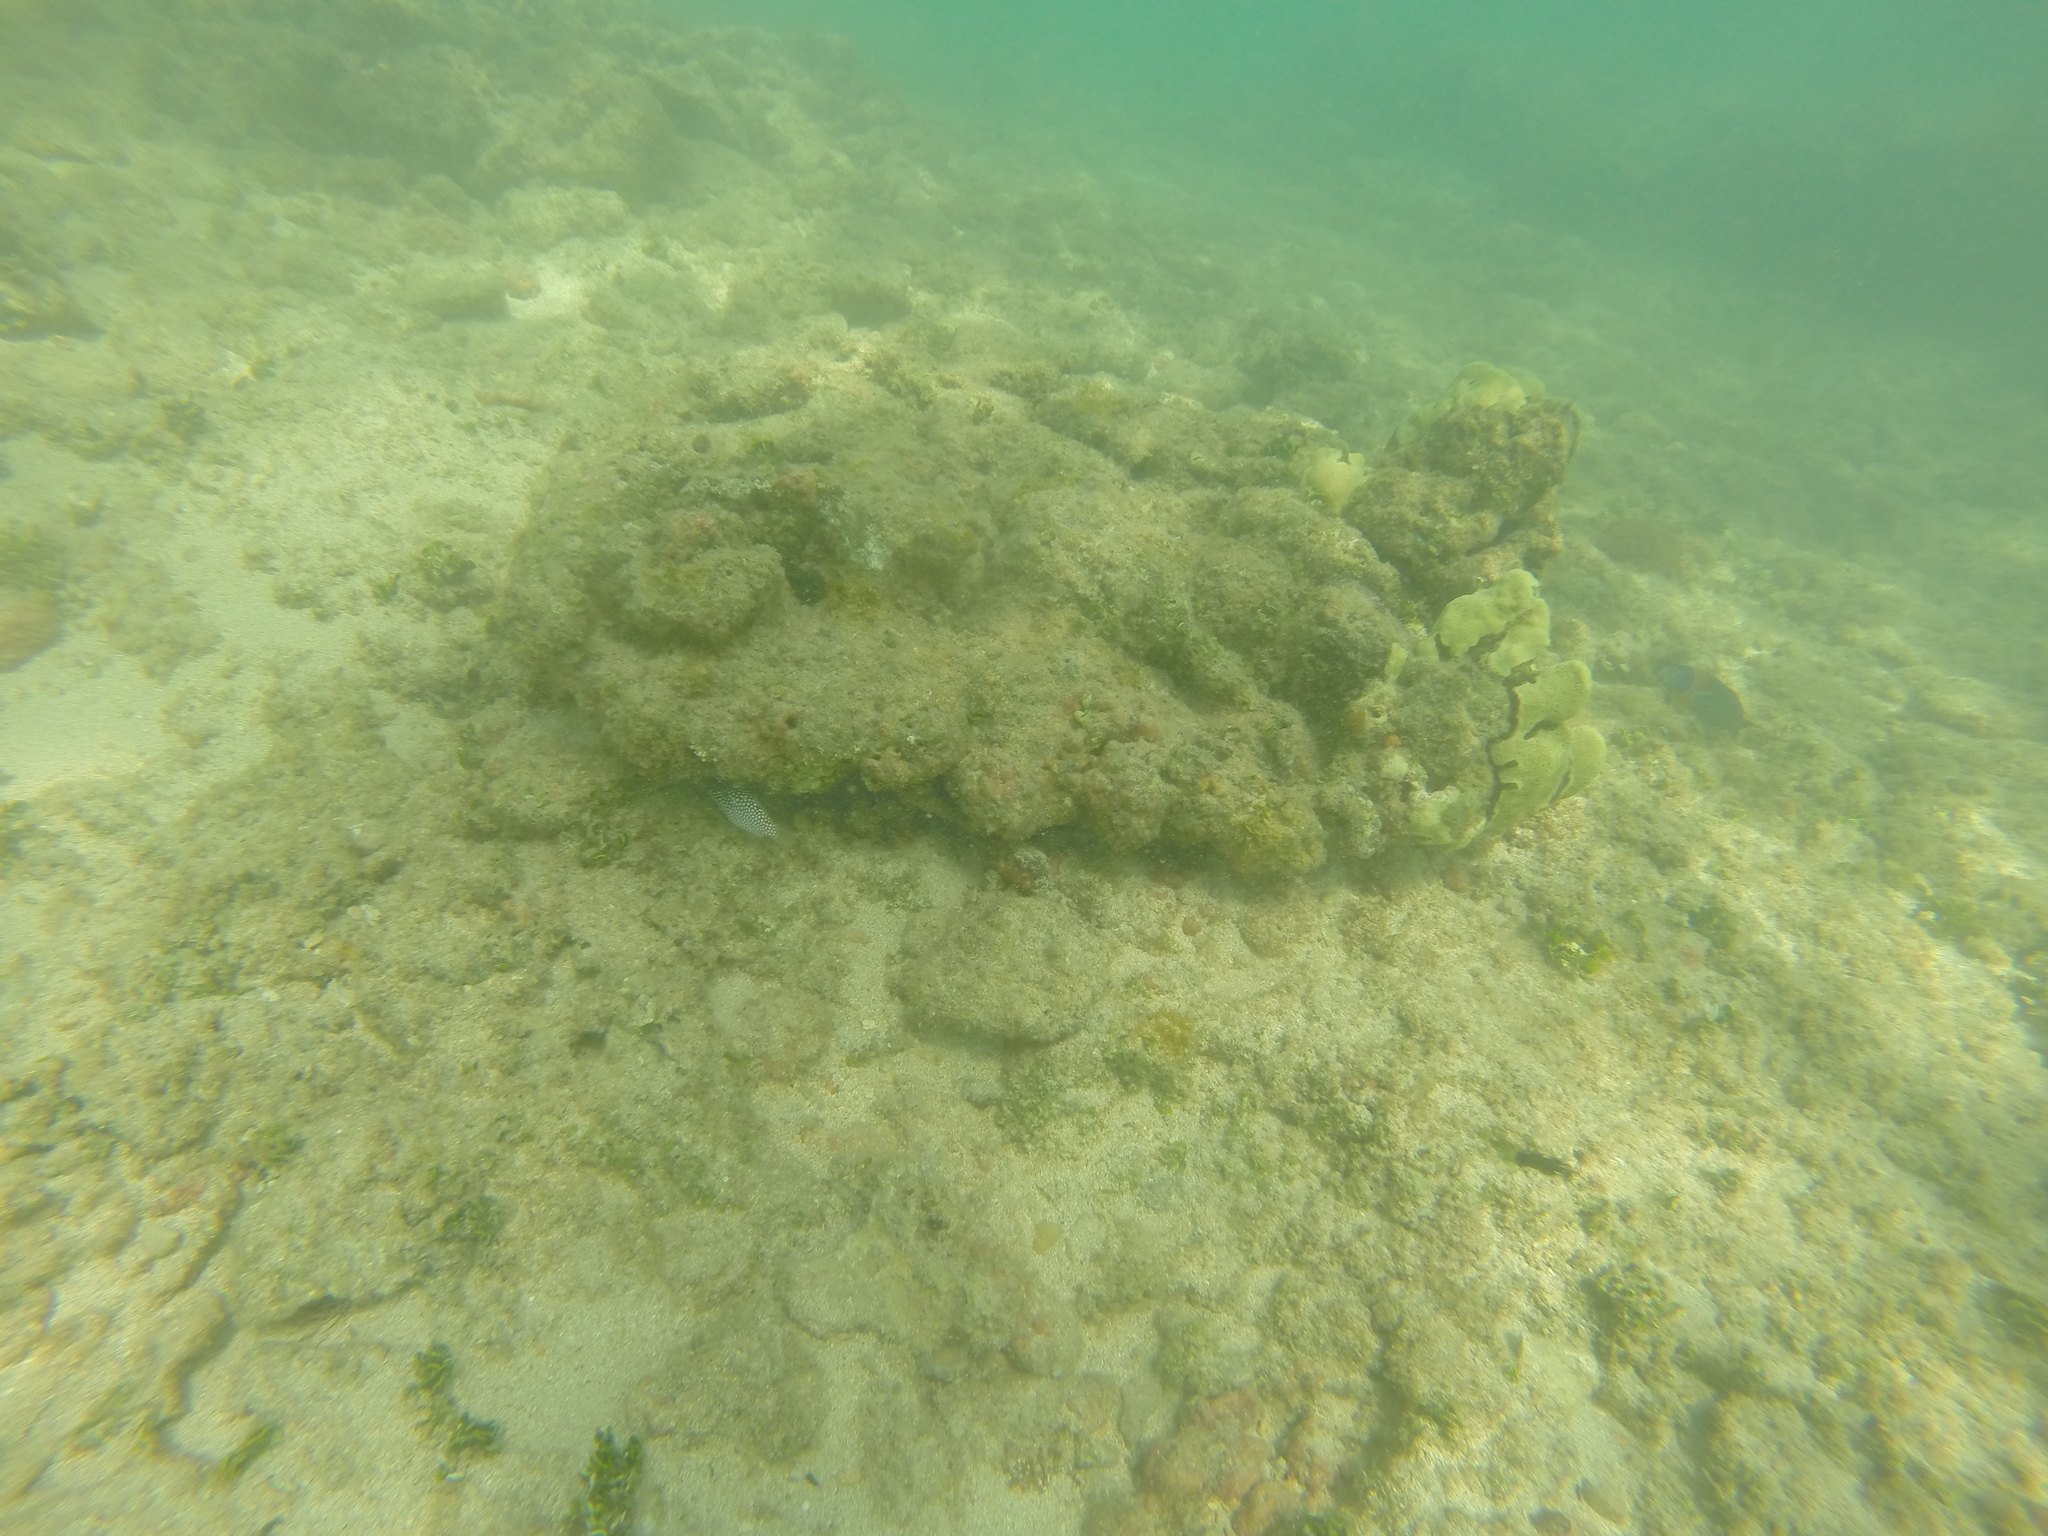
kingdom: Animalia
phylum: Chordata
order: Tetraodontiformes
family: Tetraodontidae
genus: Canthigaster
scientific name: Canthigaster jactator
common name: Hawaiian whitespotted toby
